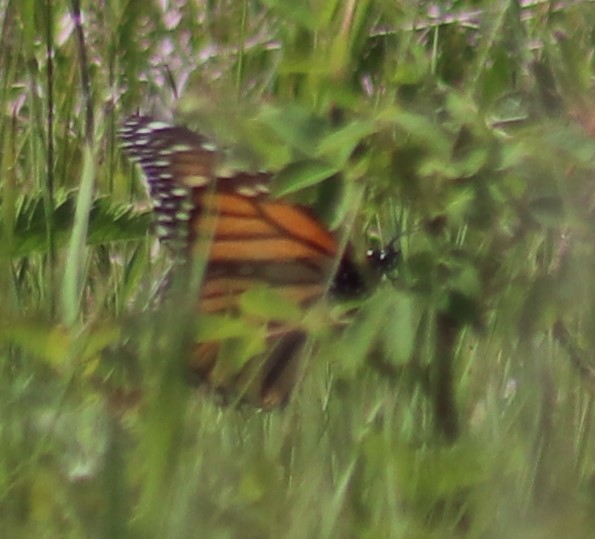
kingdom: Animalia
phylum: Arthropoda
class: Insecta
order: Lepidoptera
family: Nymphalidae
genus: Danaus
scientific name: Danaus plexippus
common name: Monarch
